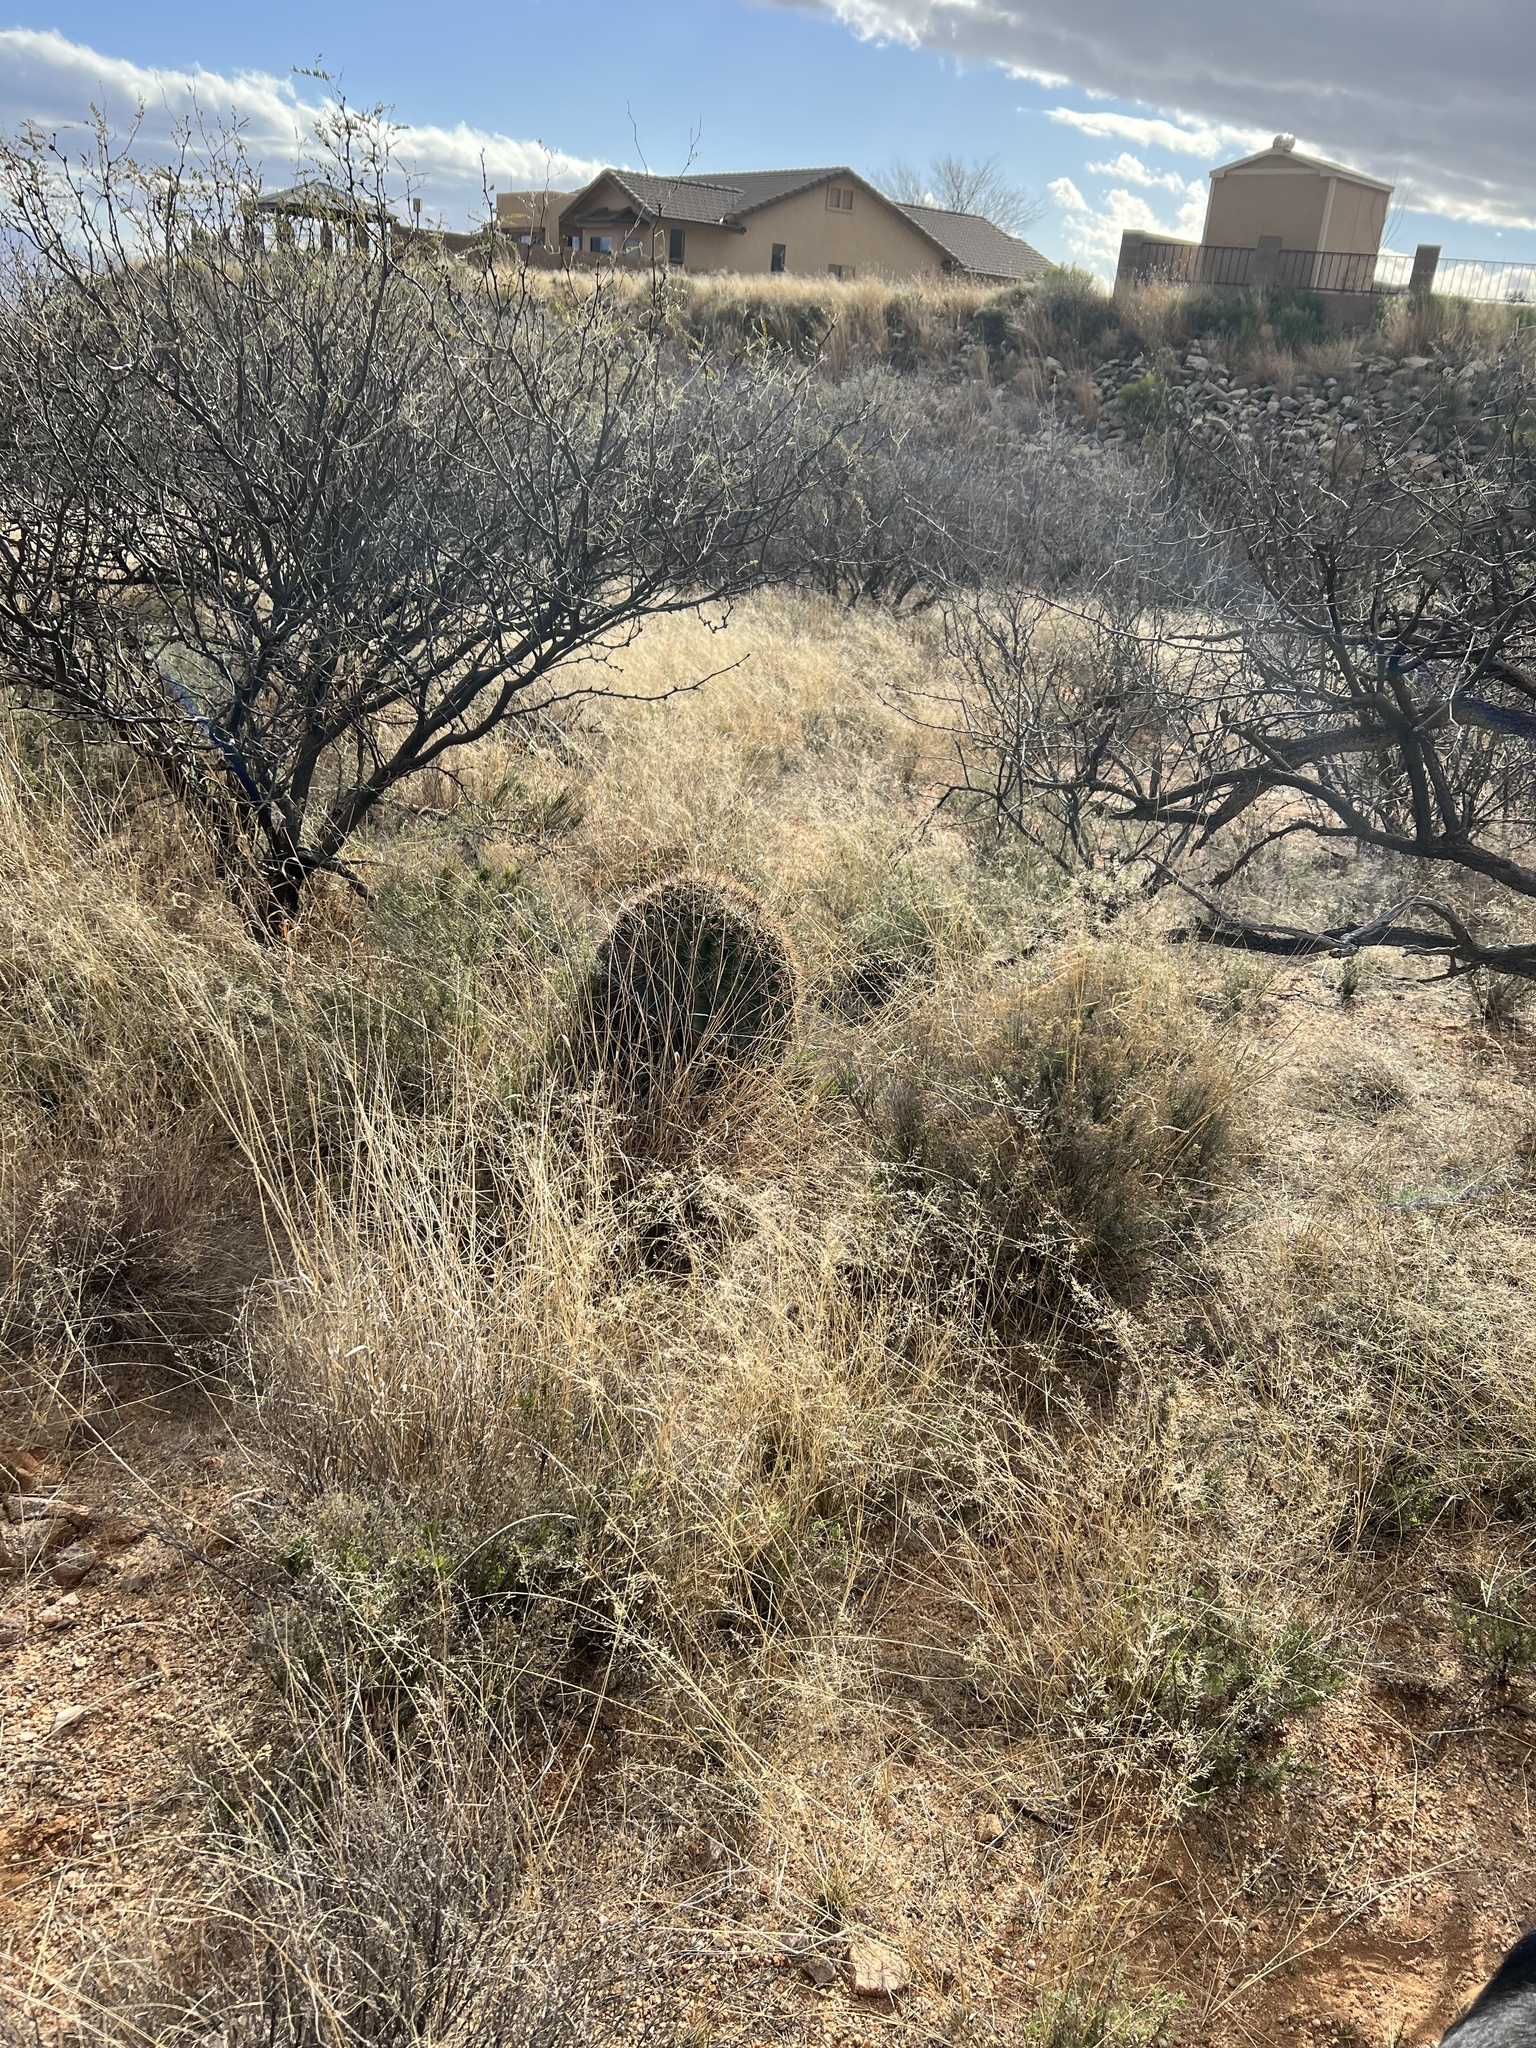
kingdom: Plantae
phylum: Tracheophyta
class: Magnoliopsida
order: Caryophyllales
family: Cactaceae
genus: Ferocactus
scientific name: Ferocactus wislizeni
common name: Candy barrel cactus
